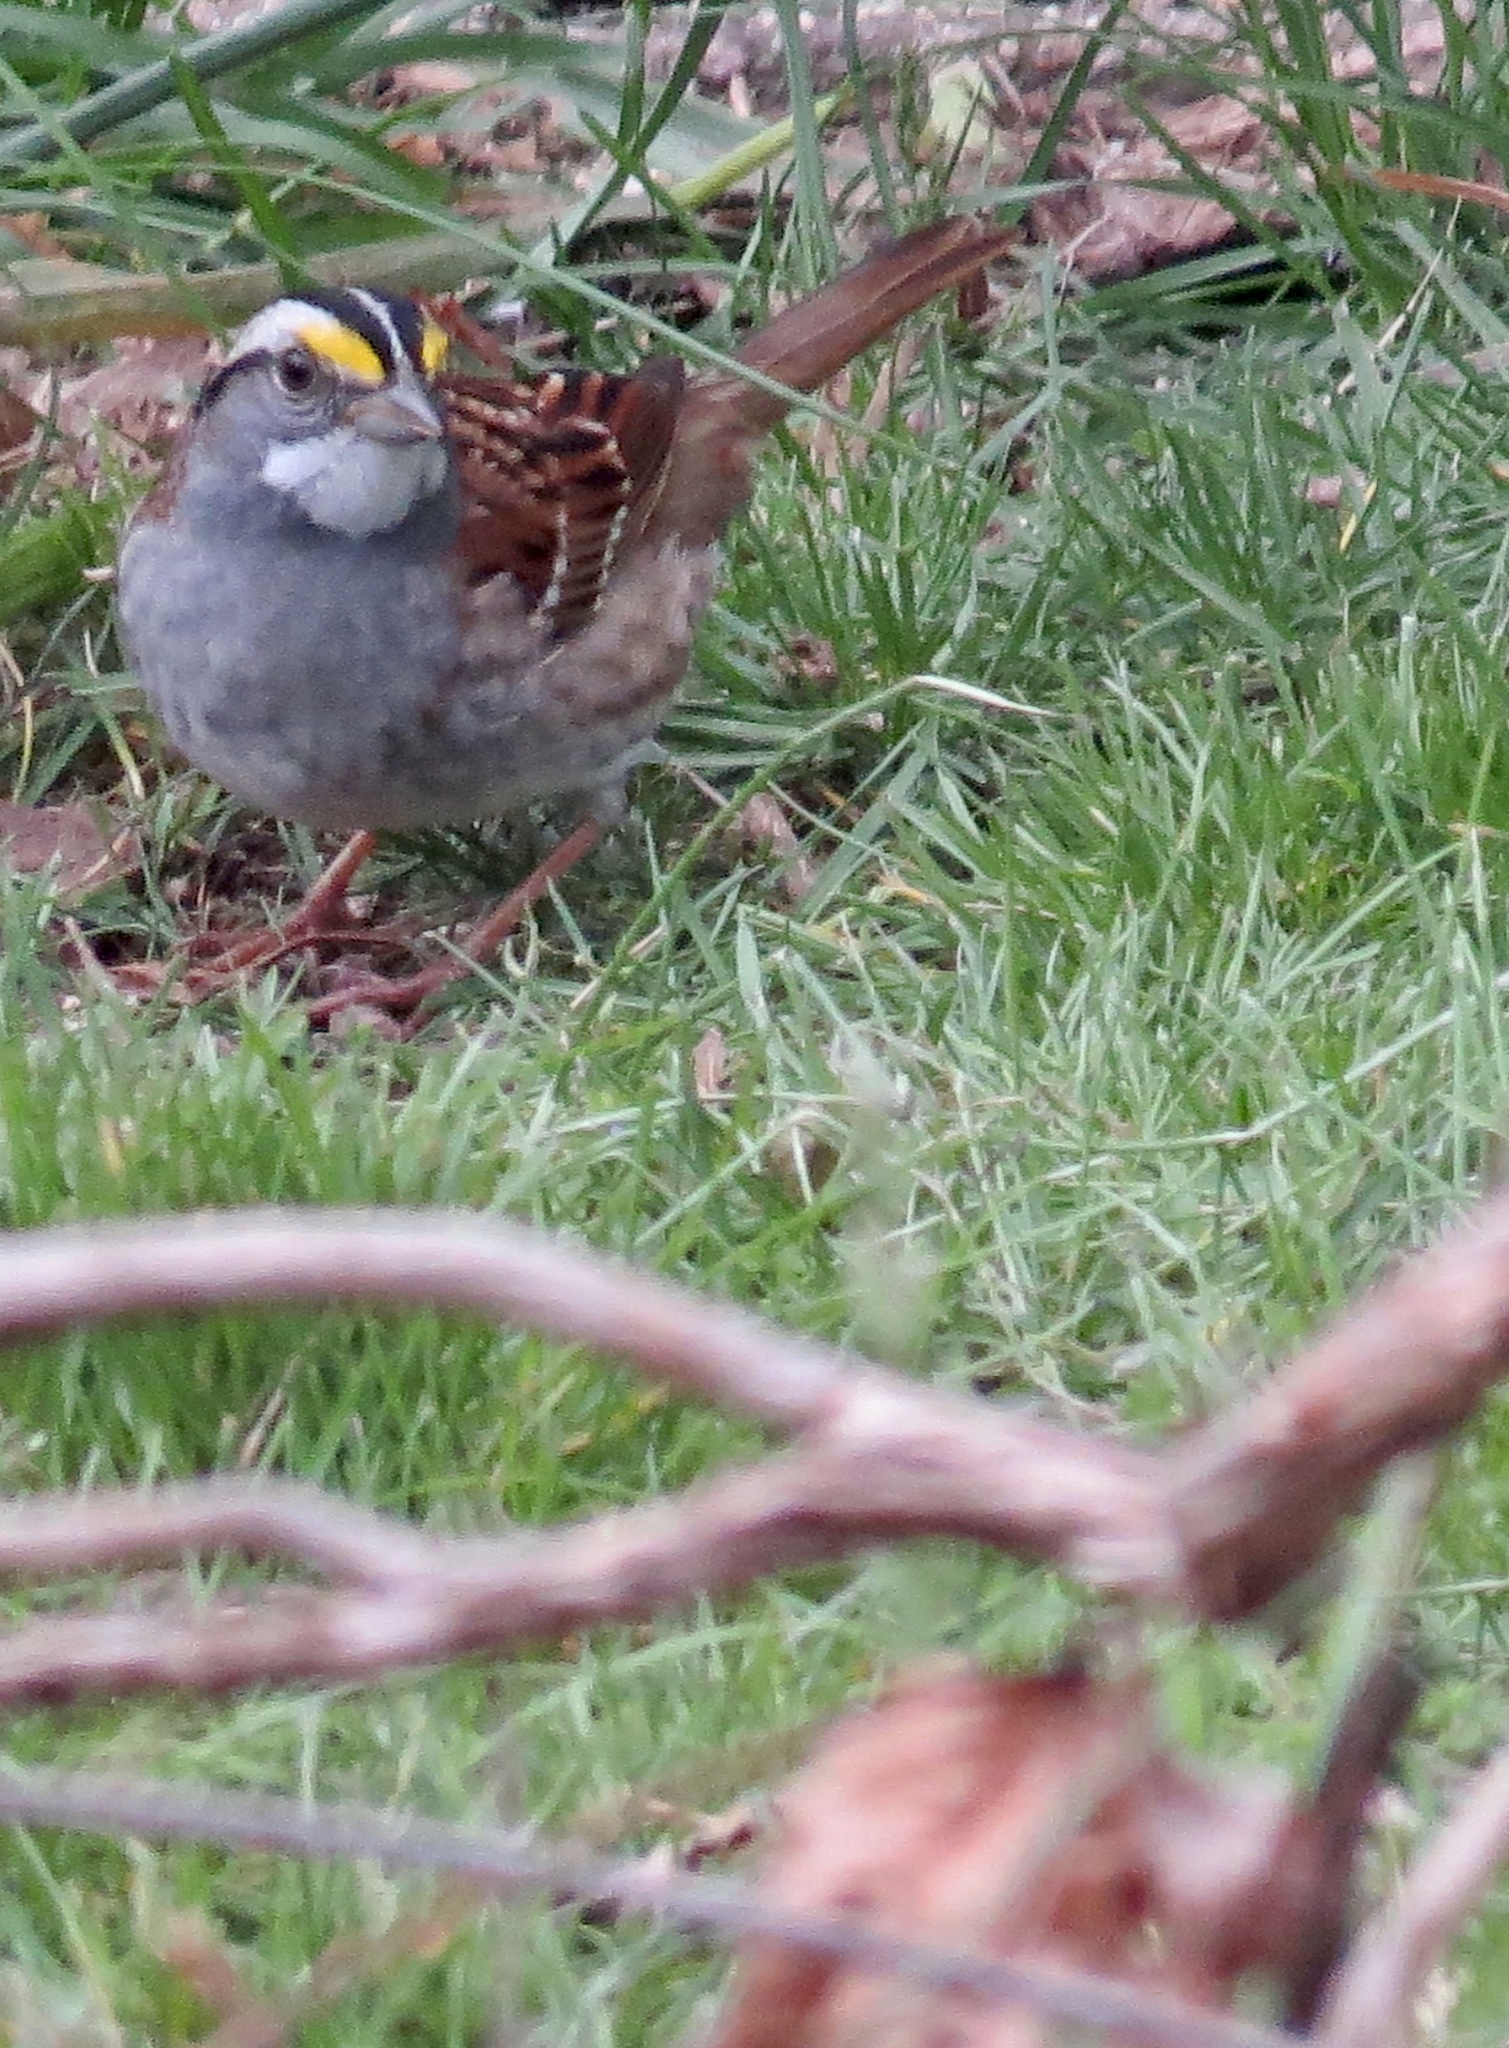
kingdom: Animalia
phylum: Chordata
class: Aves
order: Passeriformes
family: Passerellidae
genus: Zonotrichia
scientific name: Zonotrichia albicollis
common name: White-throated sparrow
